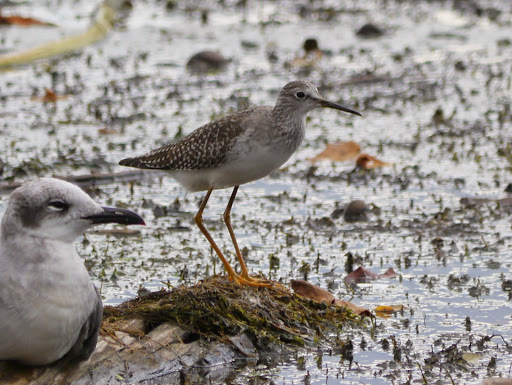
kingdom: Animalia
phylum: Chordata
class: Aves
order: Charadriiformes
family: Scolopacidae
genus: Tringa
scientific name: Tringa flavipes
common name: Lesser yellowlegs
